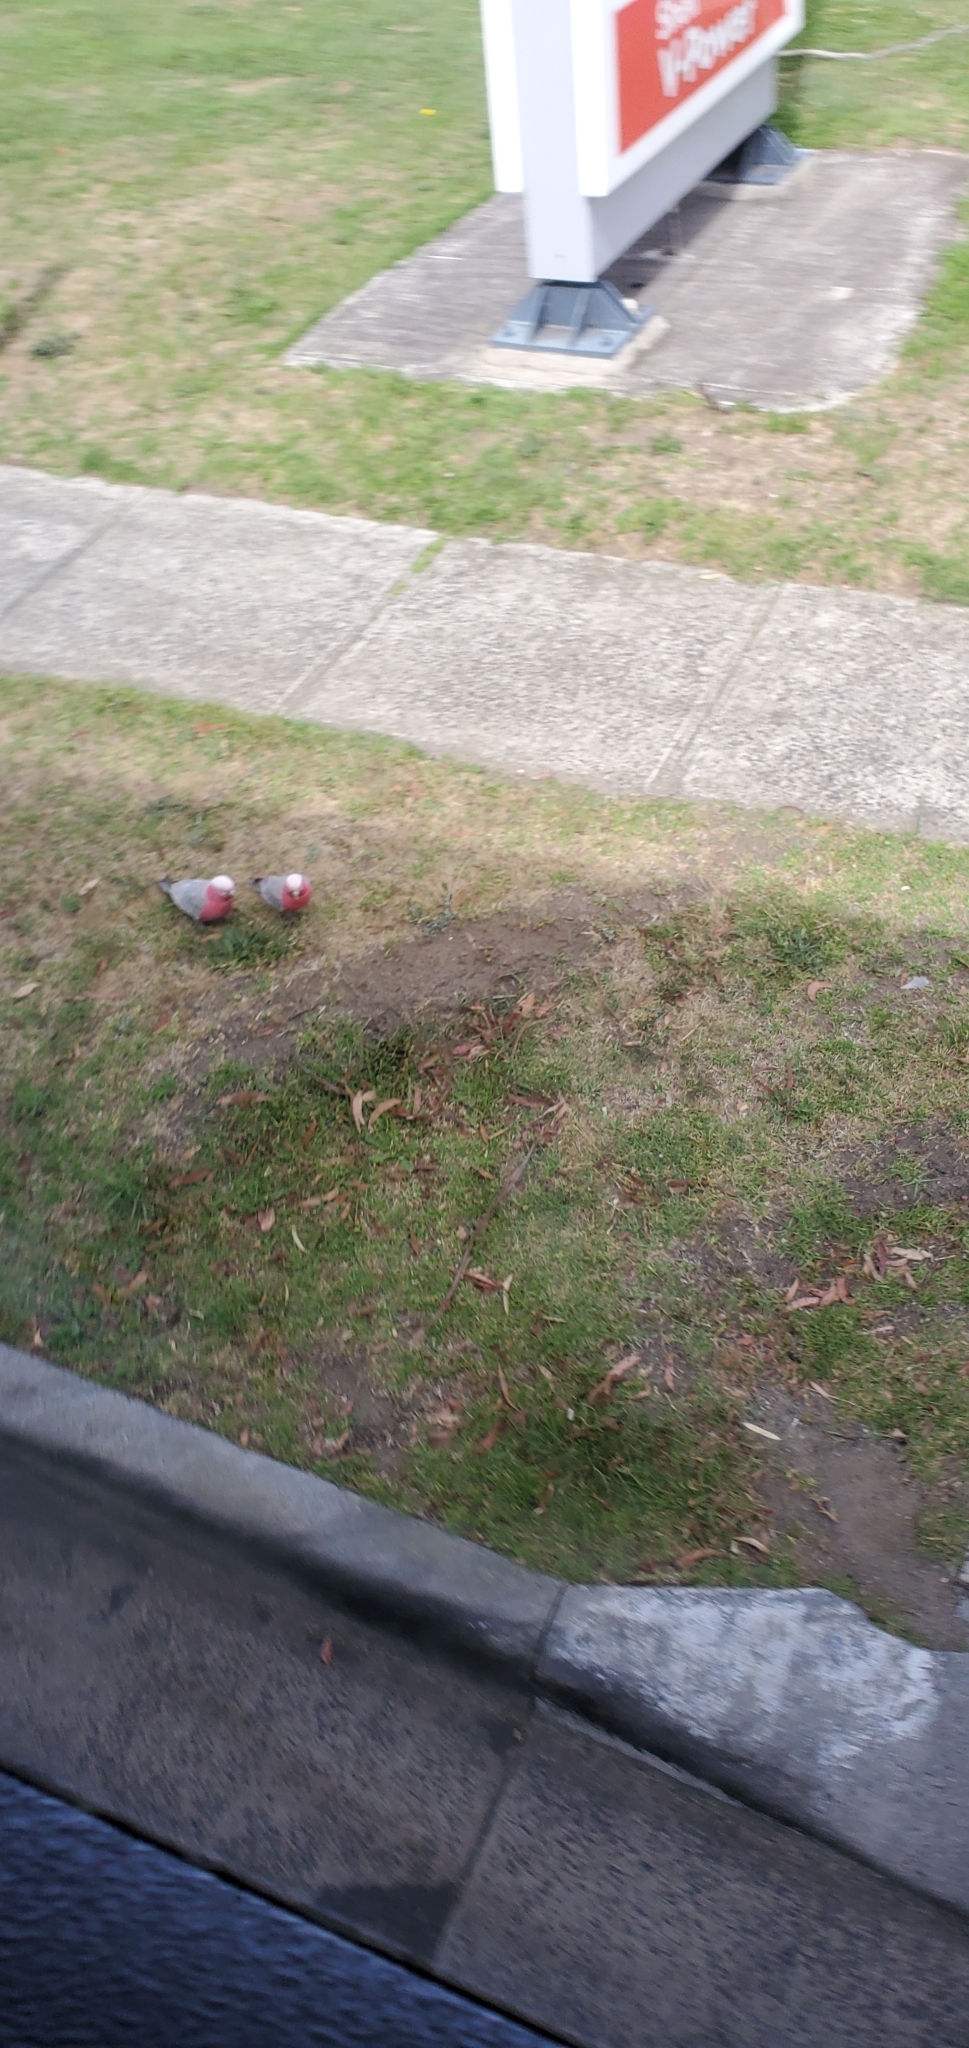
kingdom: Animalia
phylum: Chordata
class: Aves
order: Psittaciformes
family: Psittacidae
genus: Eolophus
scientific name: Eolophus roseicapilla
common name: Galah
